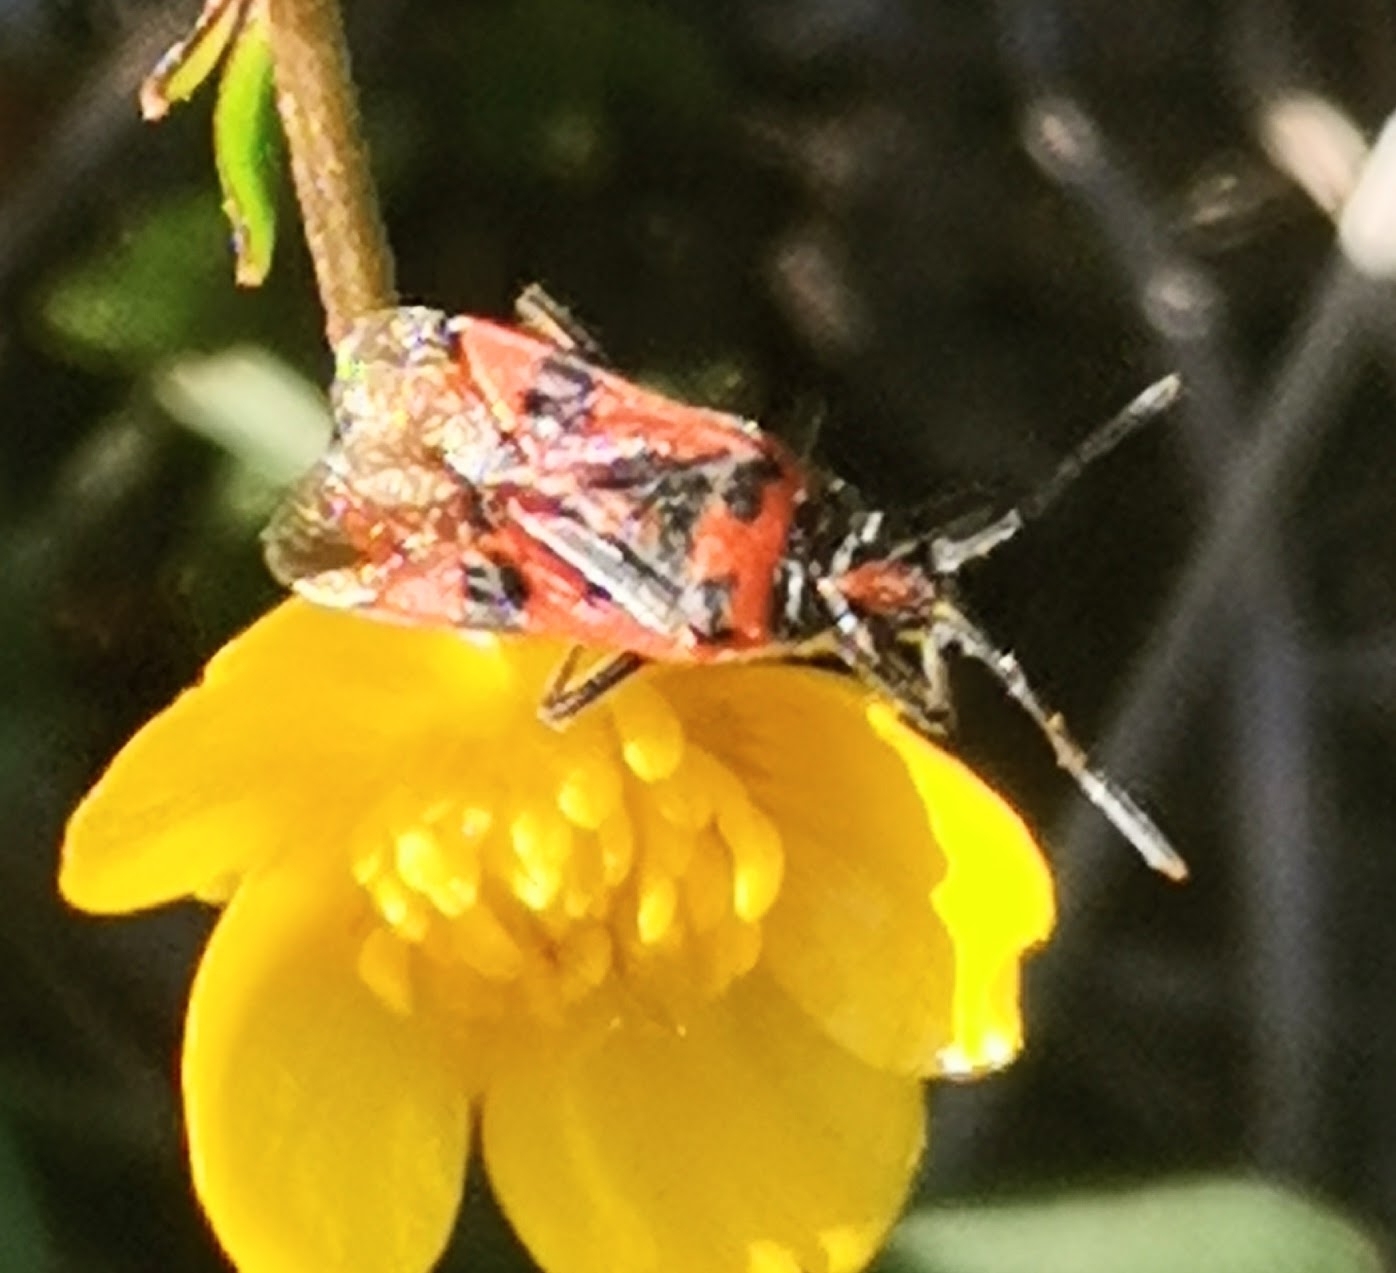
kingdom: Animalia
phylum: Arthropoda
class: Insecta
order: Hemiptera
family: Rhopalidae
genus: Corizus
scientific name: Corizus hyoscyami
